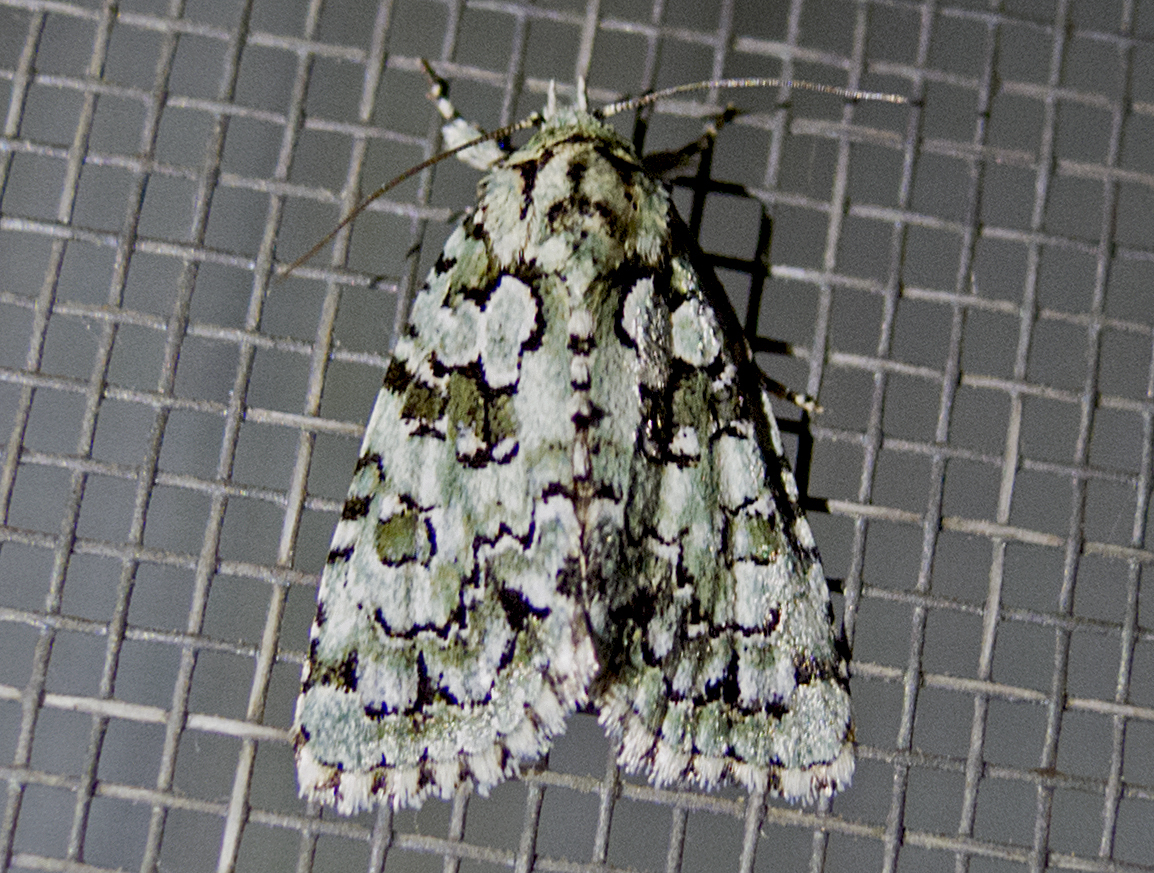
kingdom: Plantae
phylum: Chlorophyta
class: Ulvophyceae
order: Bryopsidales
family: Bryopsidaceae
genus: Bryopsis
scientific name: Bryopsis
